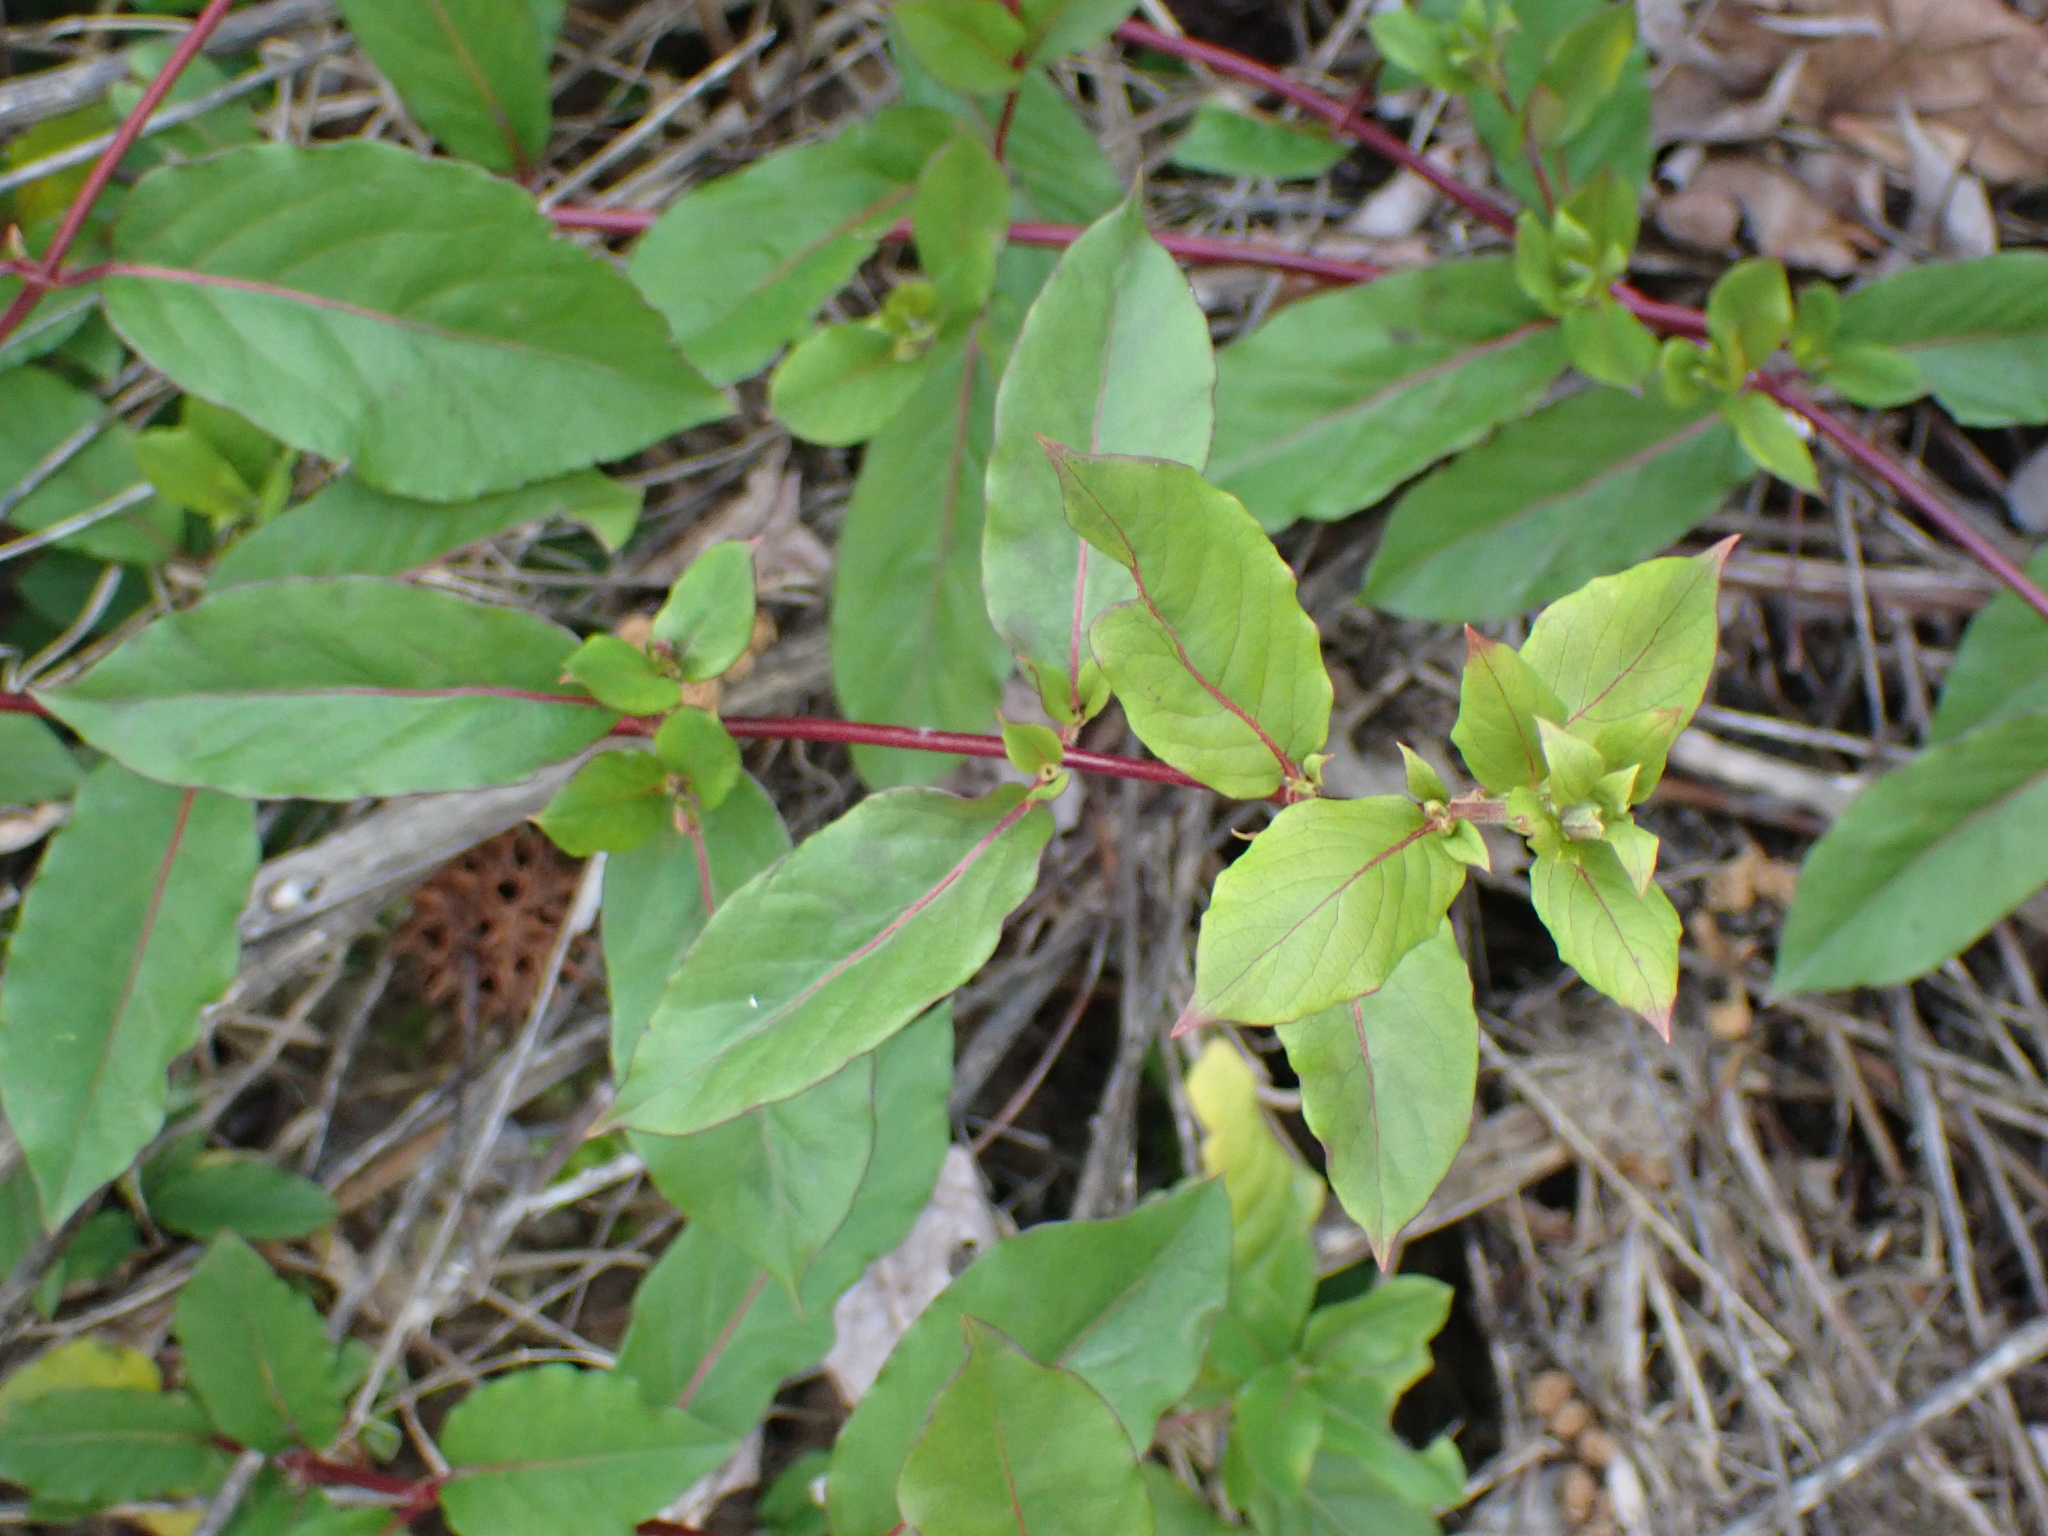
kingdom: Plantae
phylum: Tracheophyta
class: Magnoliopsida
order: Dipsacales
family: Caprifoliaceae
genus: Lonicera
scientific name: Lonicera japonica
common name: Japanese honeysuckle
